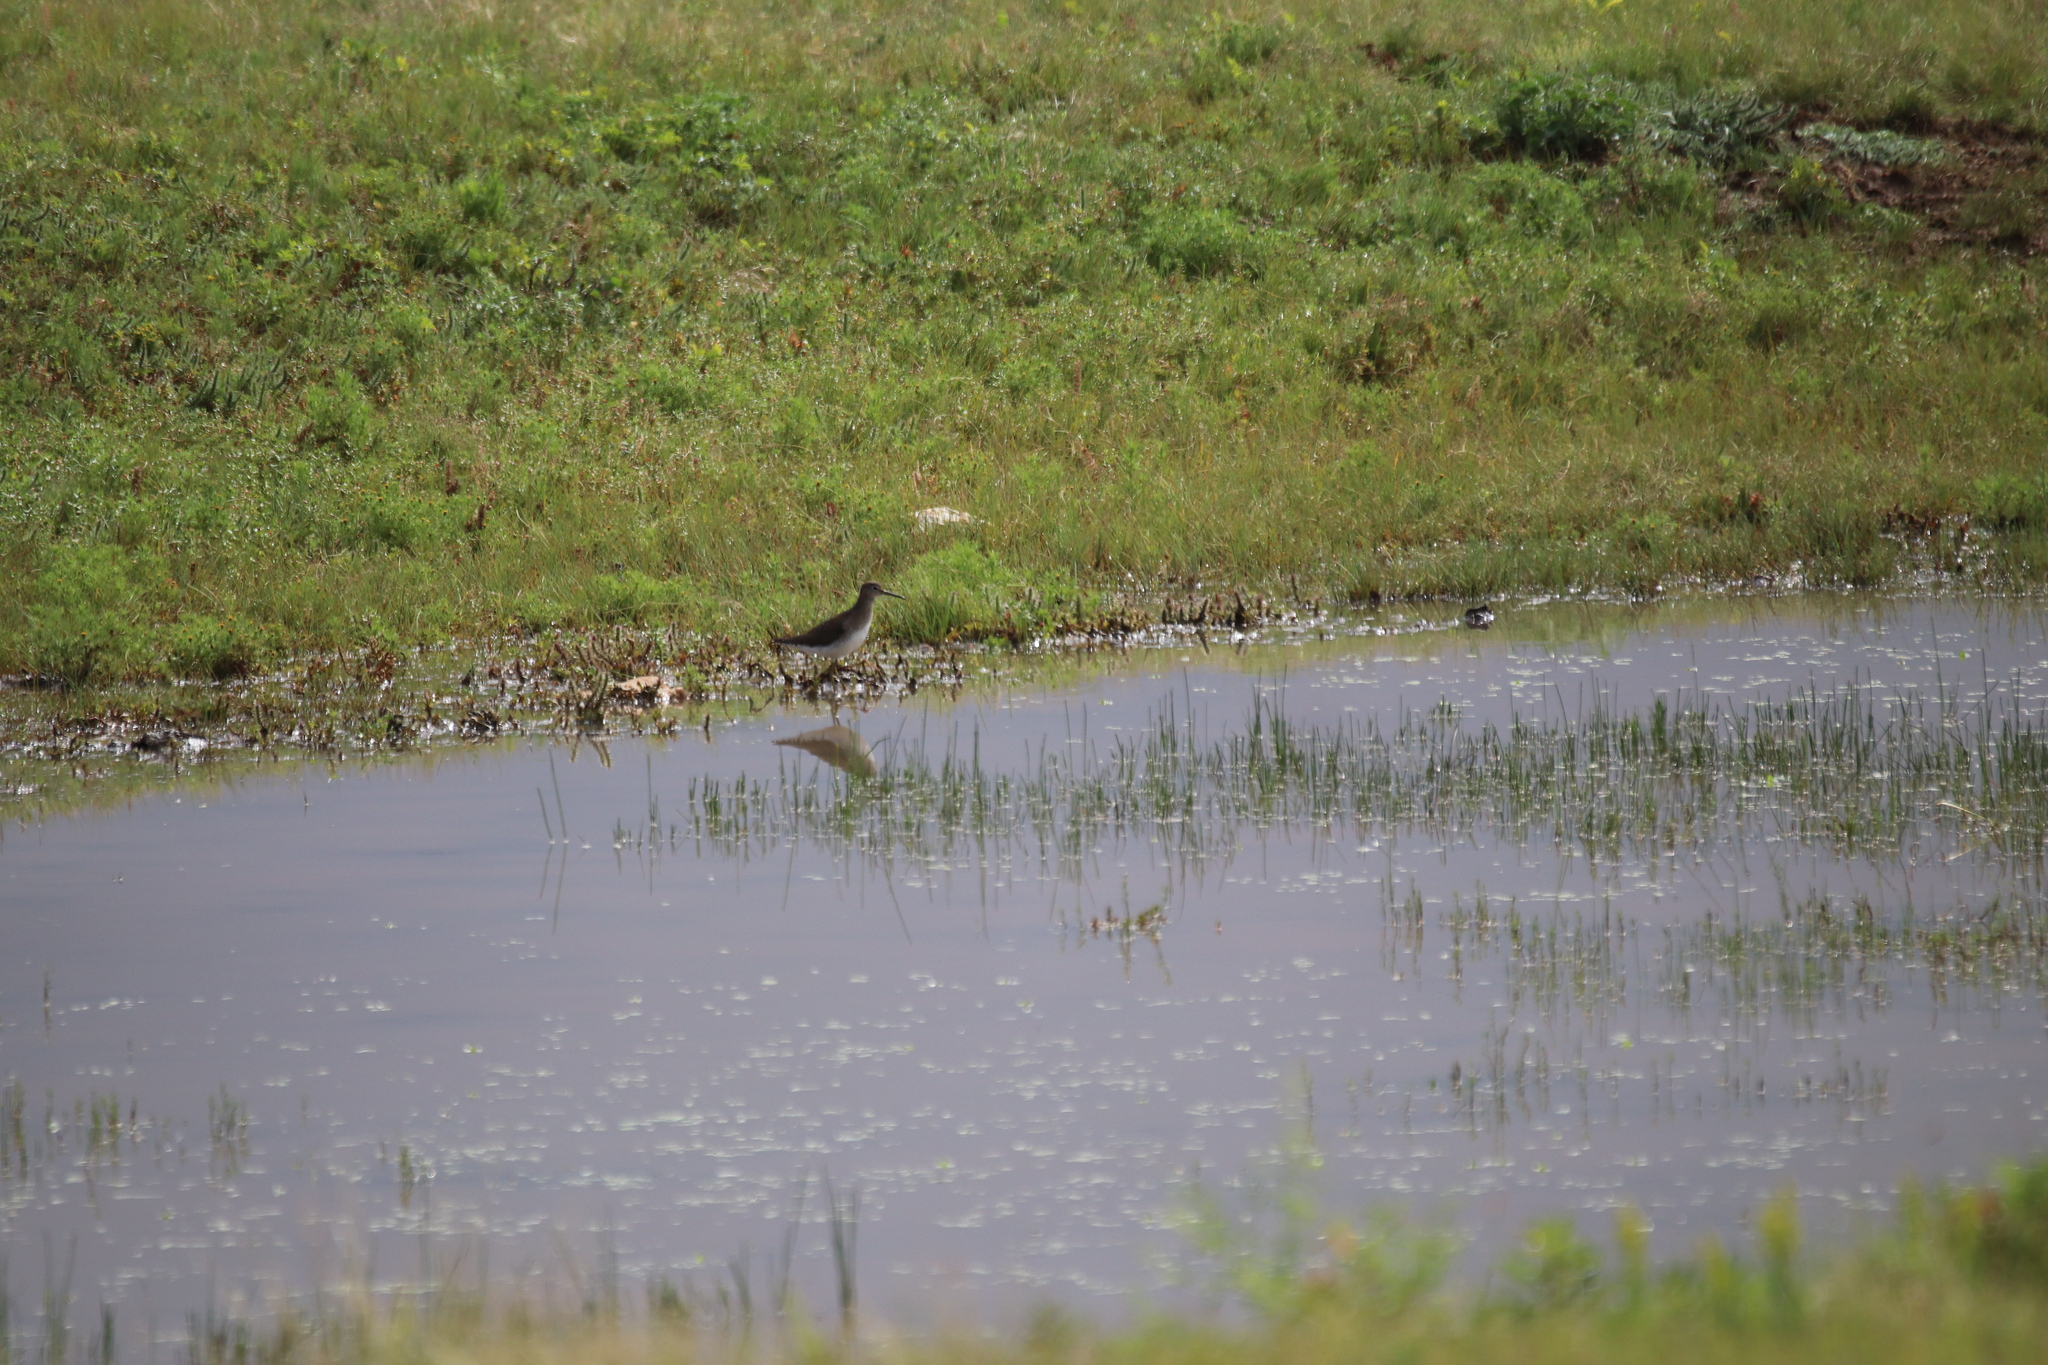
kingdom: Animalia
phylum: Chordata
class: Aves
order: Charadriiformes
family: Scolopacidae
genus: Tringa
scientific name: Tringa solitaria
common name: Solitary sandpiper
